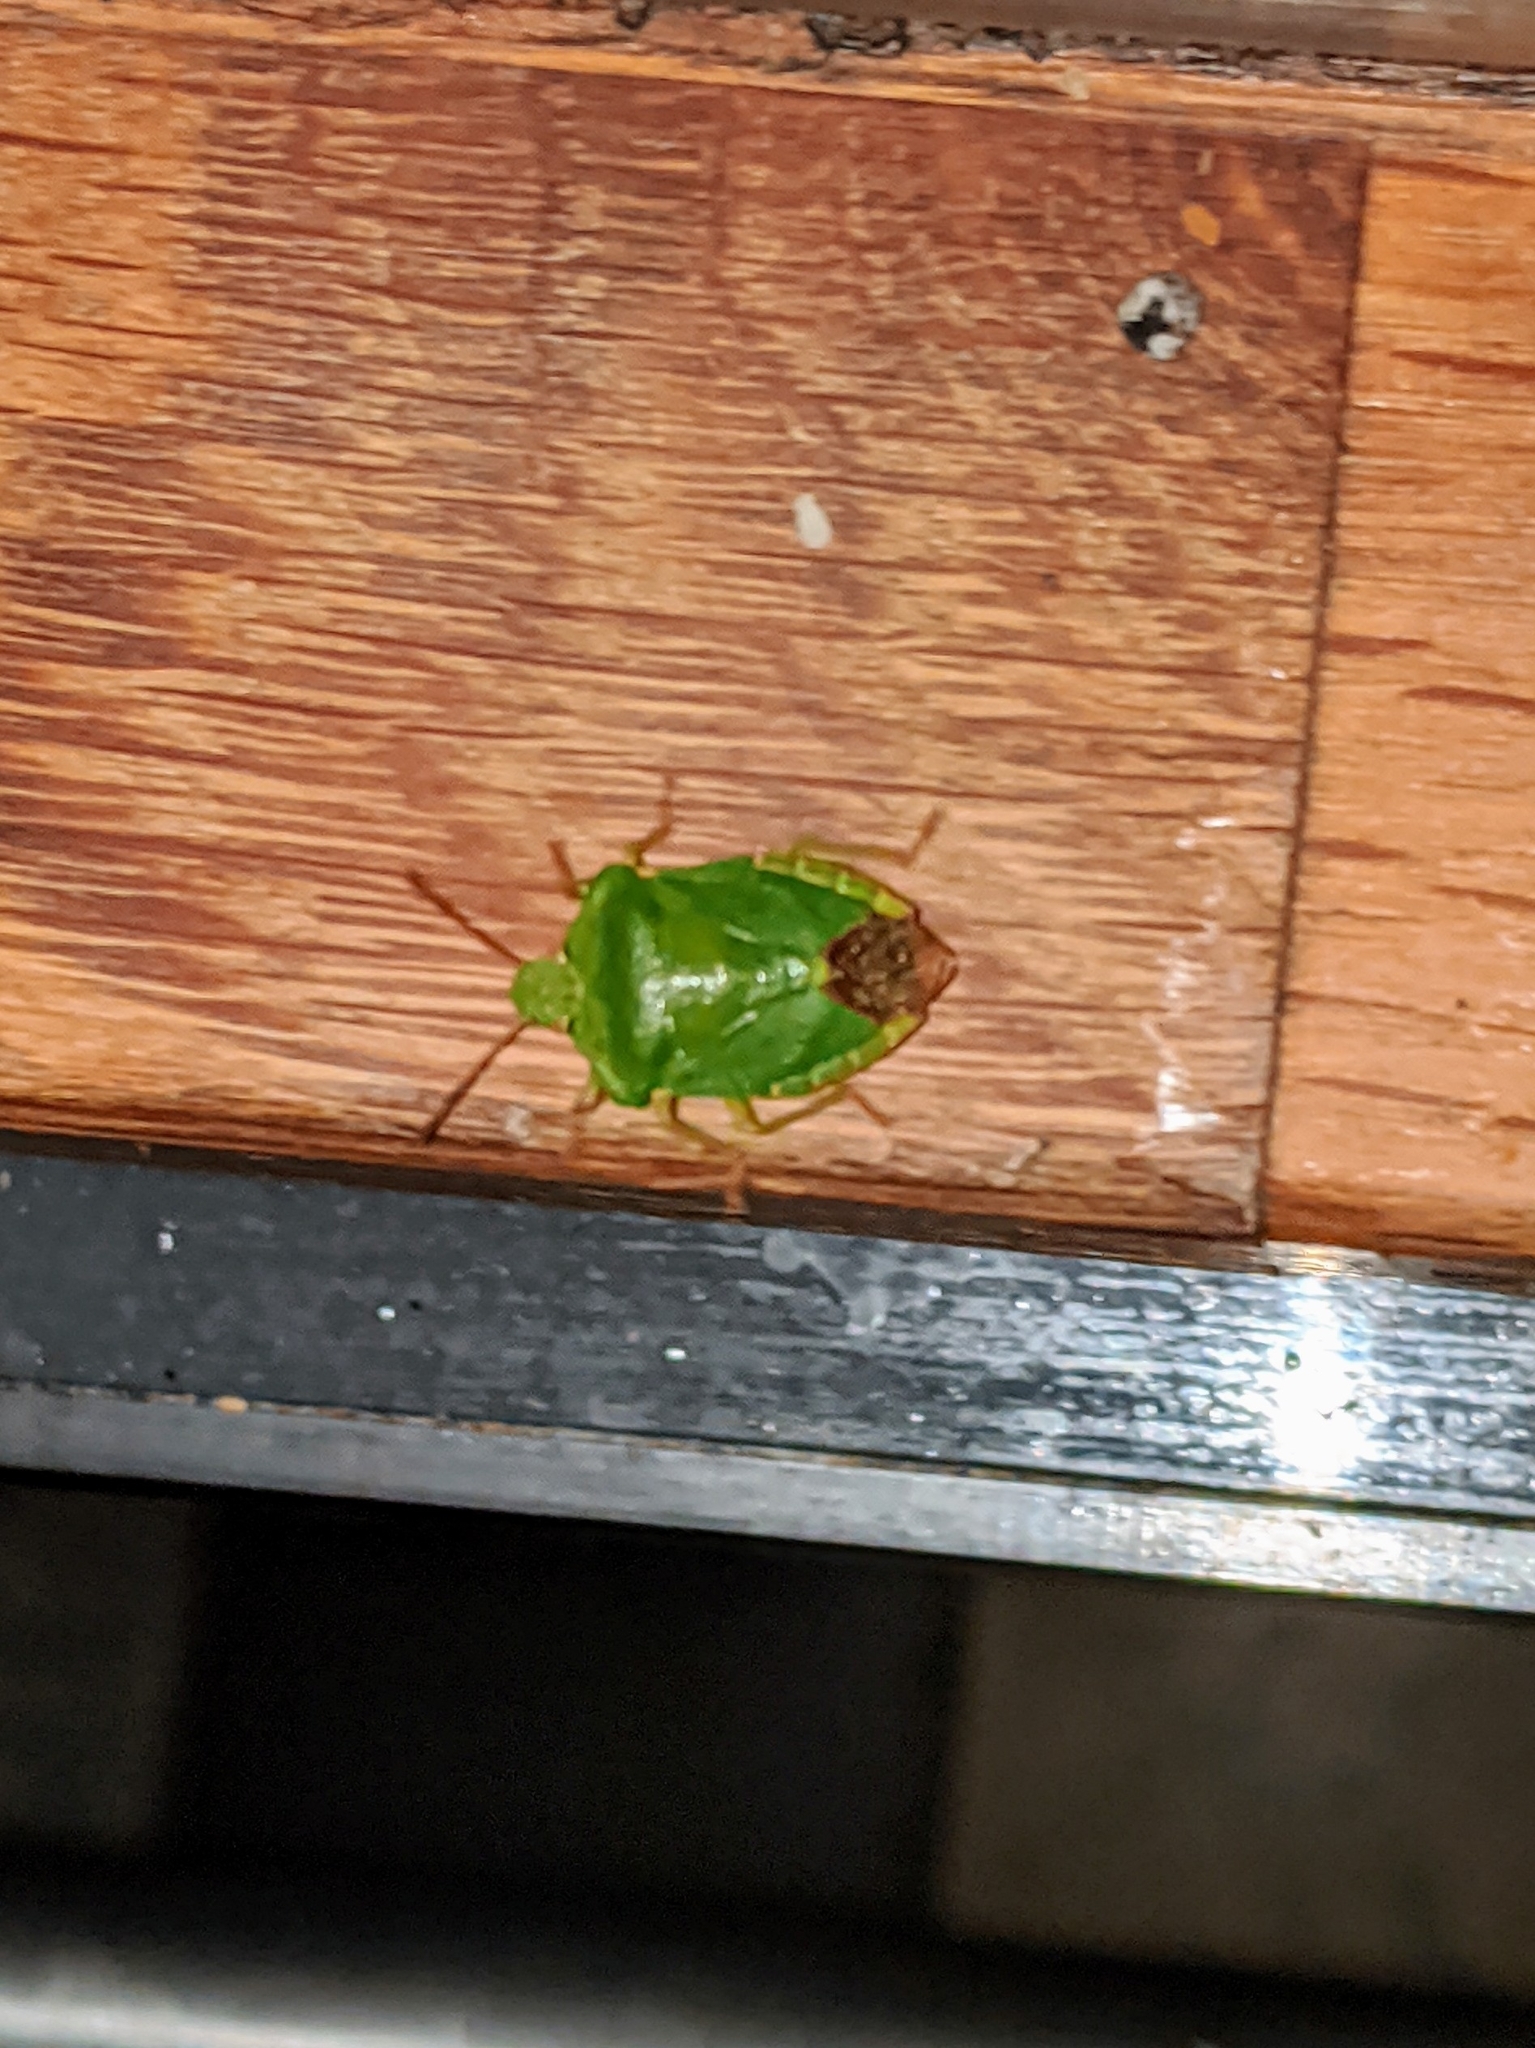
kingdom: Animalia
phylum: Arthropoda
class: Insecta
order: Hemiptera
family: Pentatomidae
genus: Palomena
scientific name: Palomena prasina
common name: Green shieldbug
